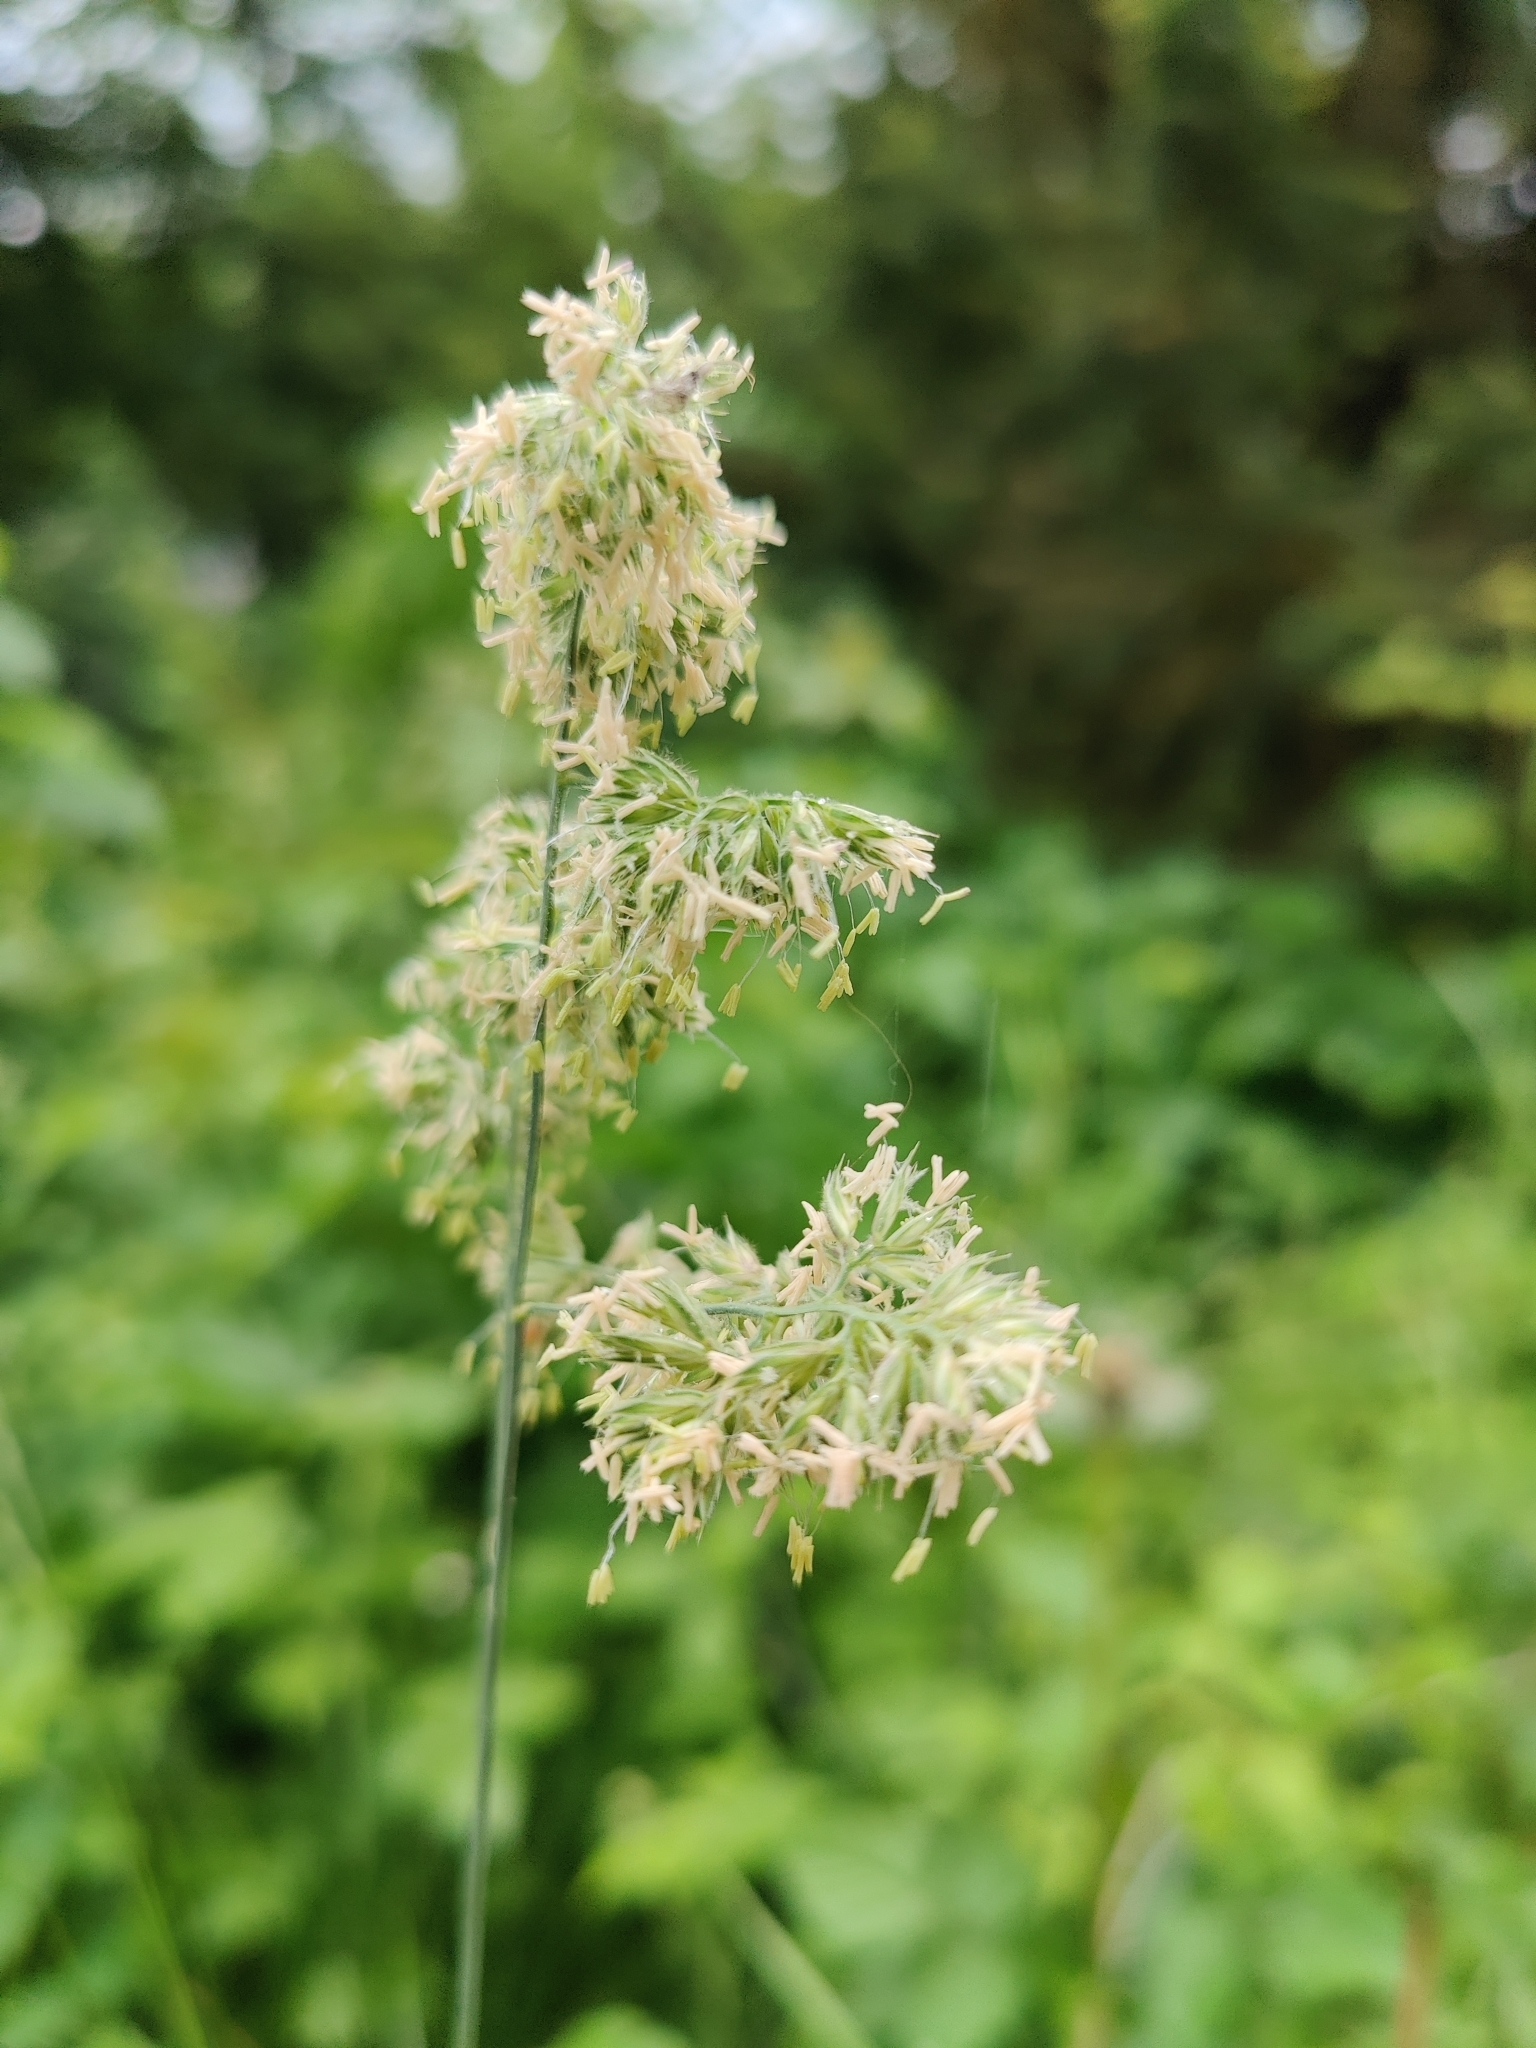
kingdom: Plantae
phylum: Tracheophyta
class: Liliopsida
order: Poales
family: Poaceae
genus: Dactylis
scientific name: Dactylis glomerata
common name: Orchardgrass
